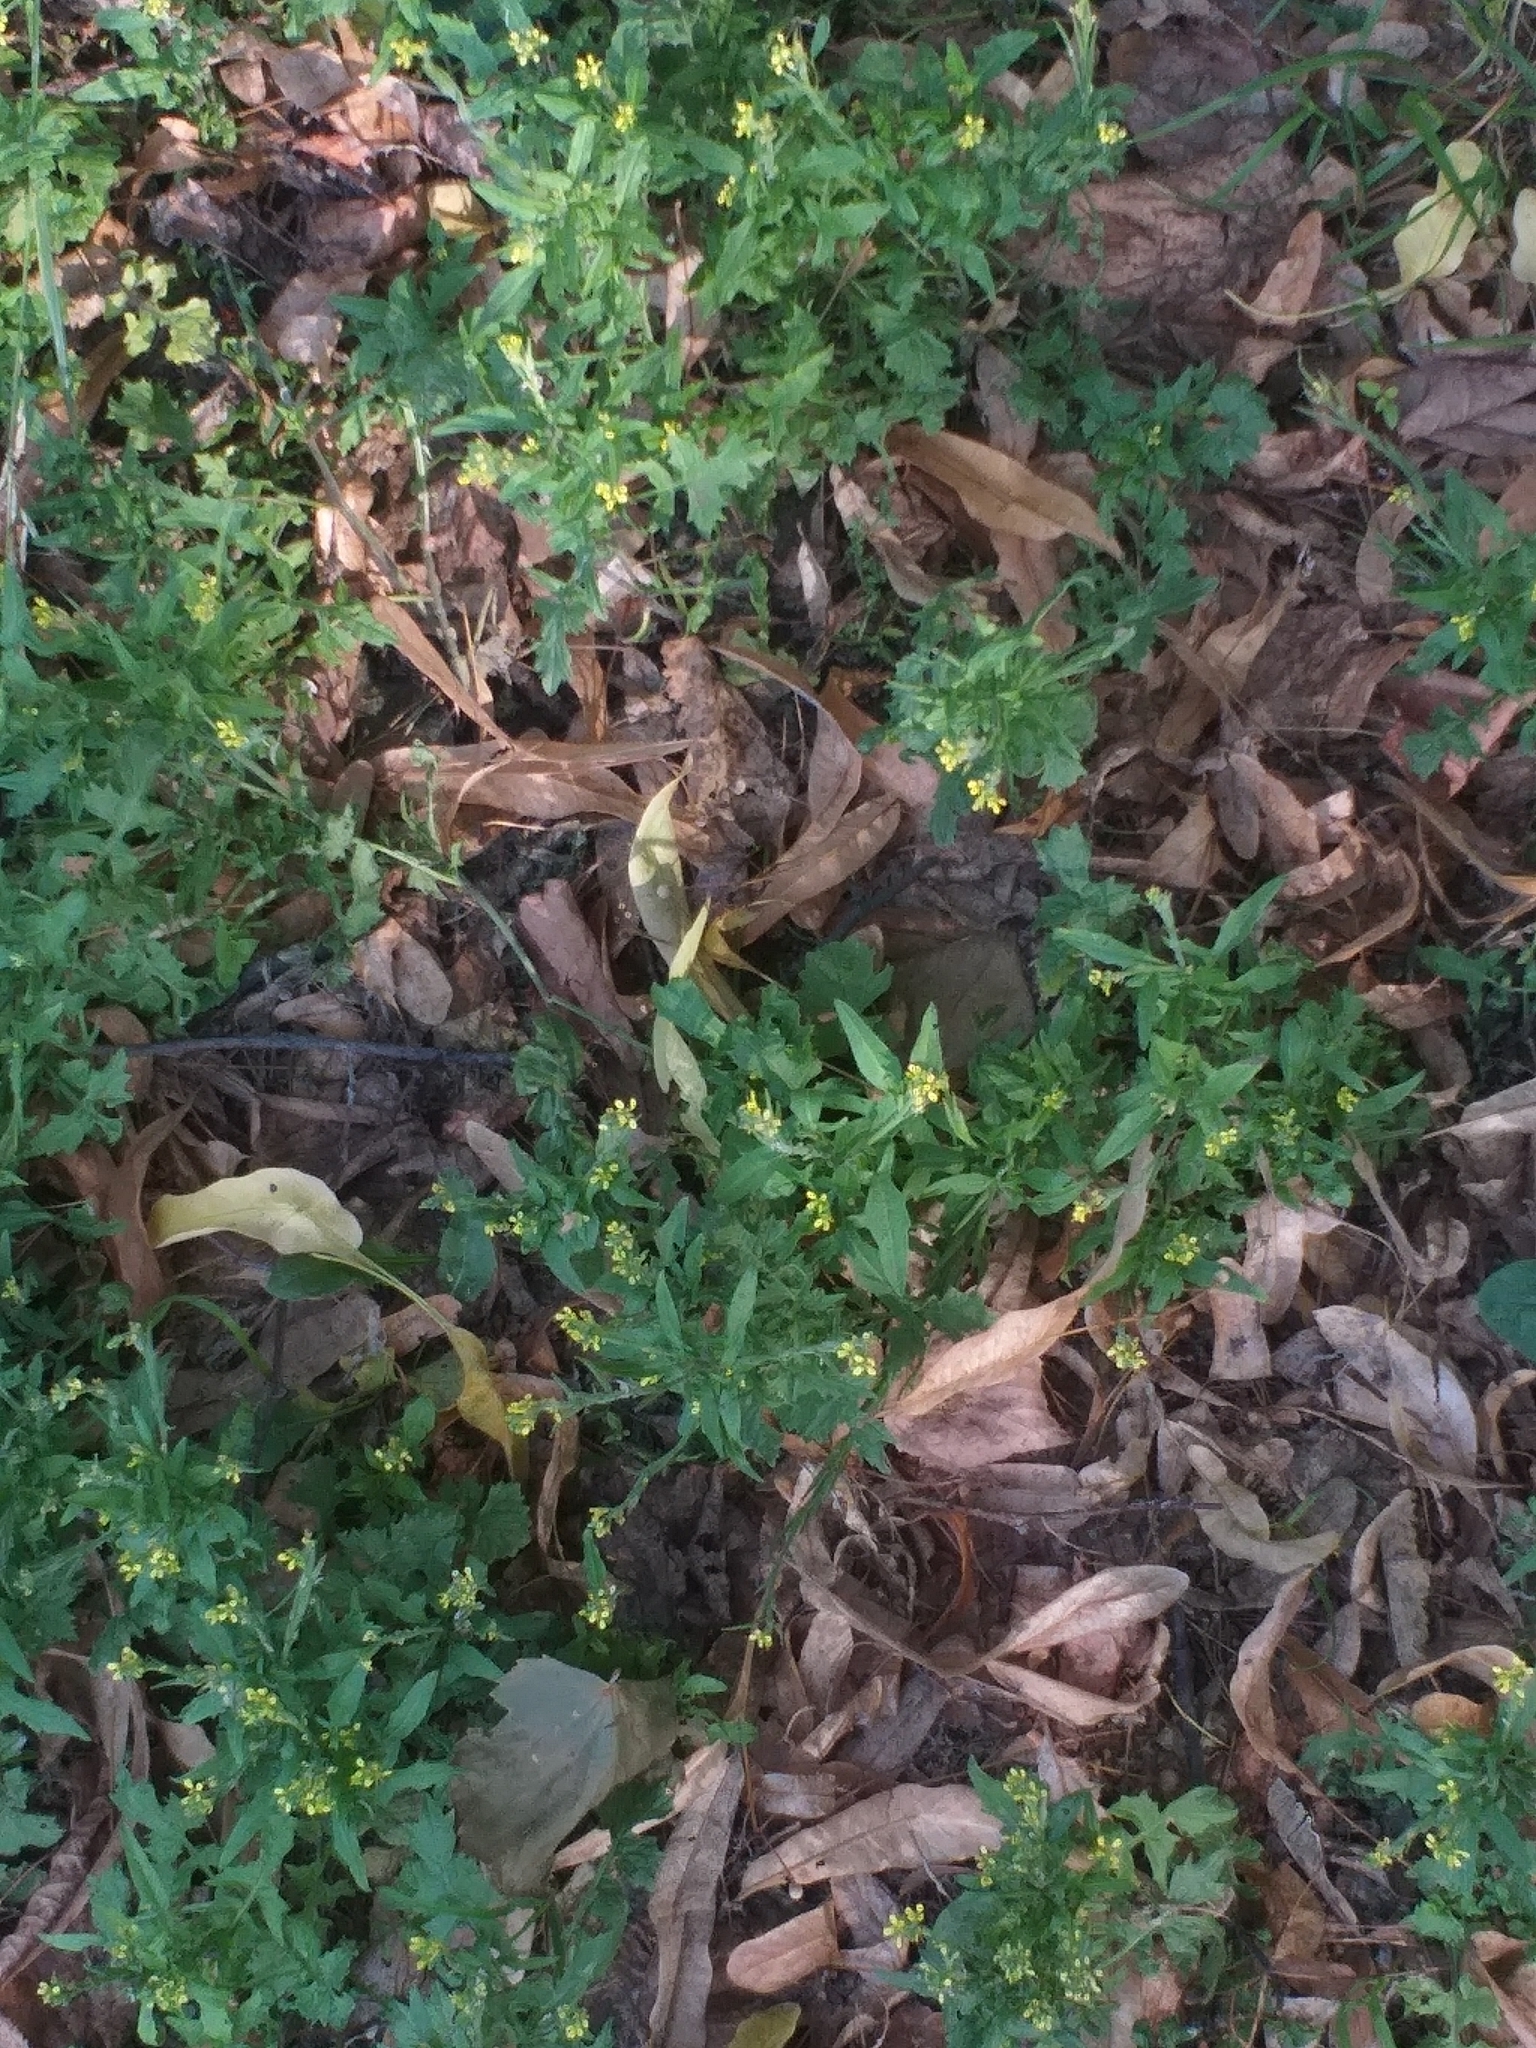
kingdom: Plantae
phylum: Tracheophyta
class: Magnoliopsida
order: Brassicales
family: Brassicaceae
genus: Sisymbrium
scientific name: Sisymbrium officinale
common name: Hedge mustard
